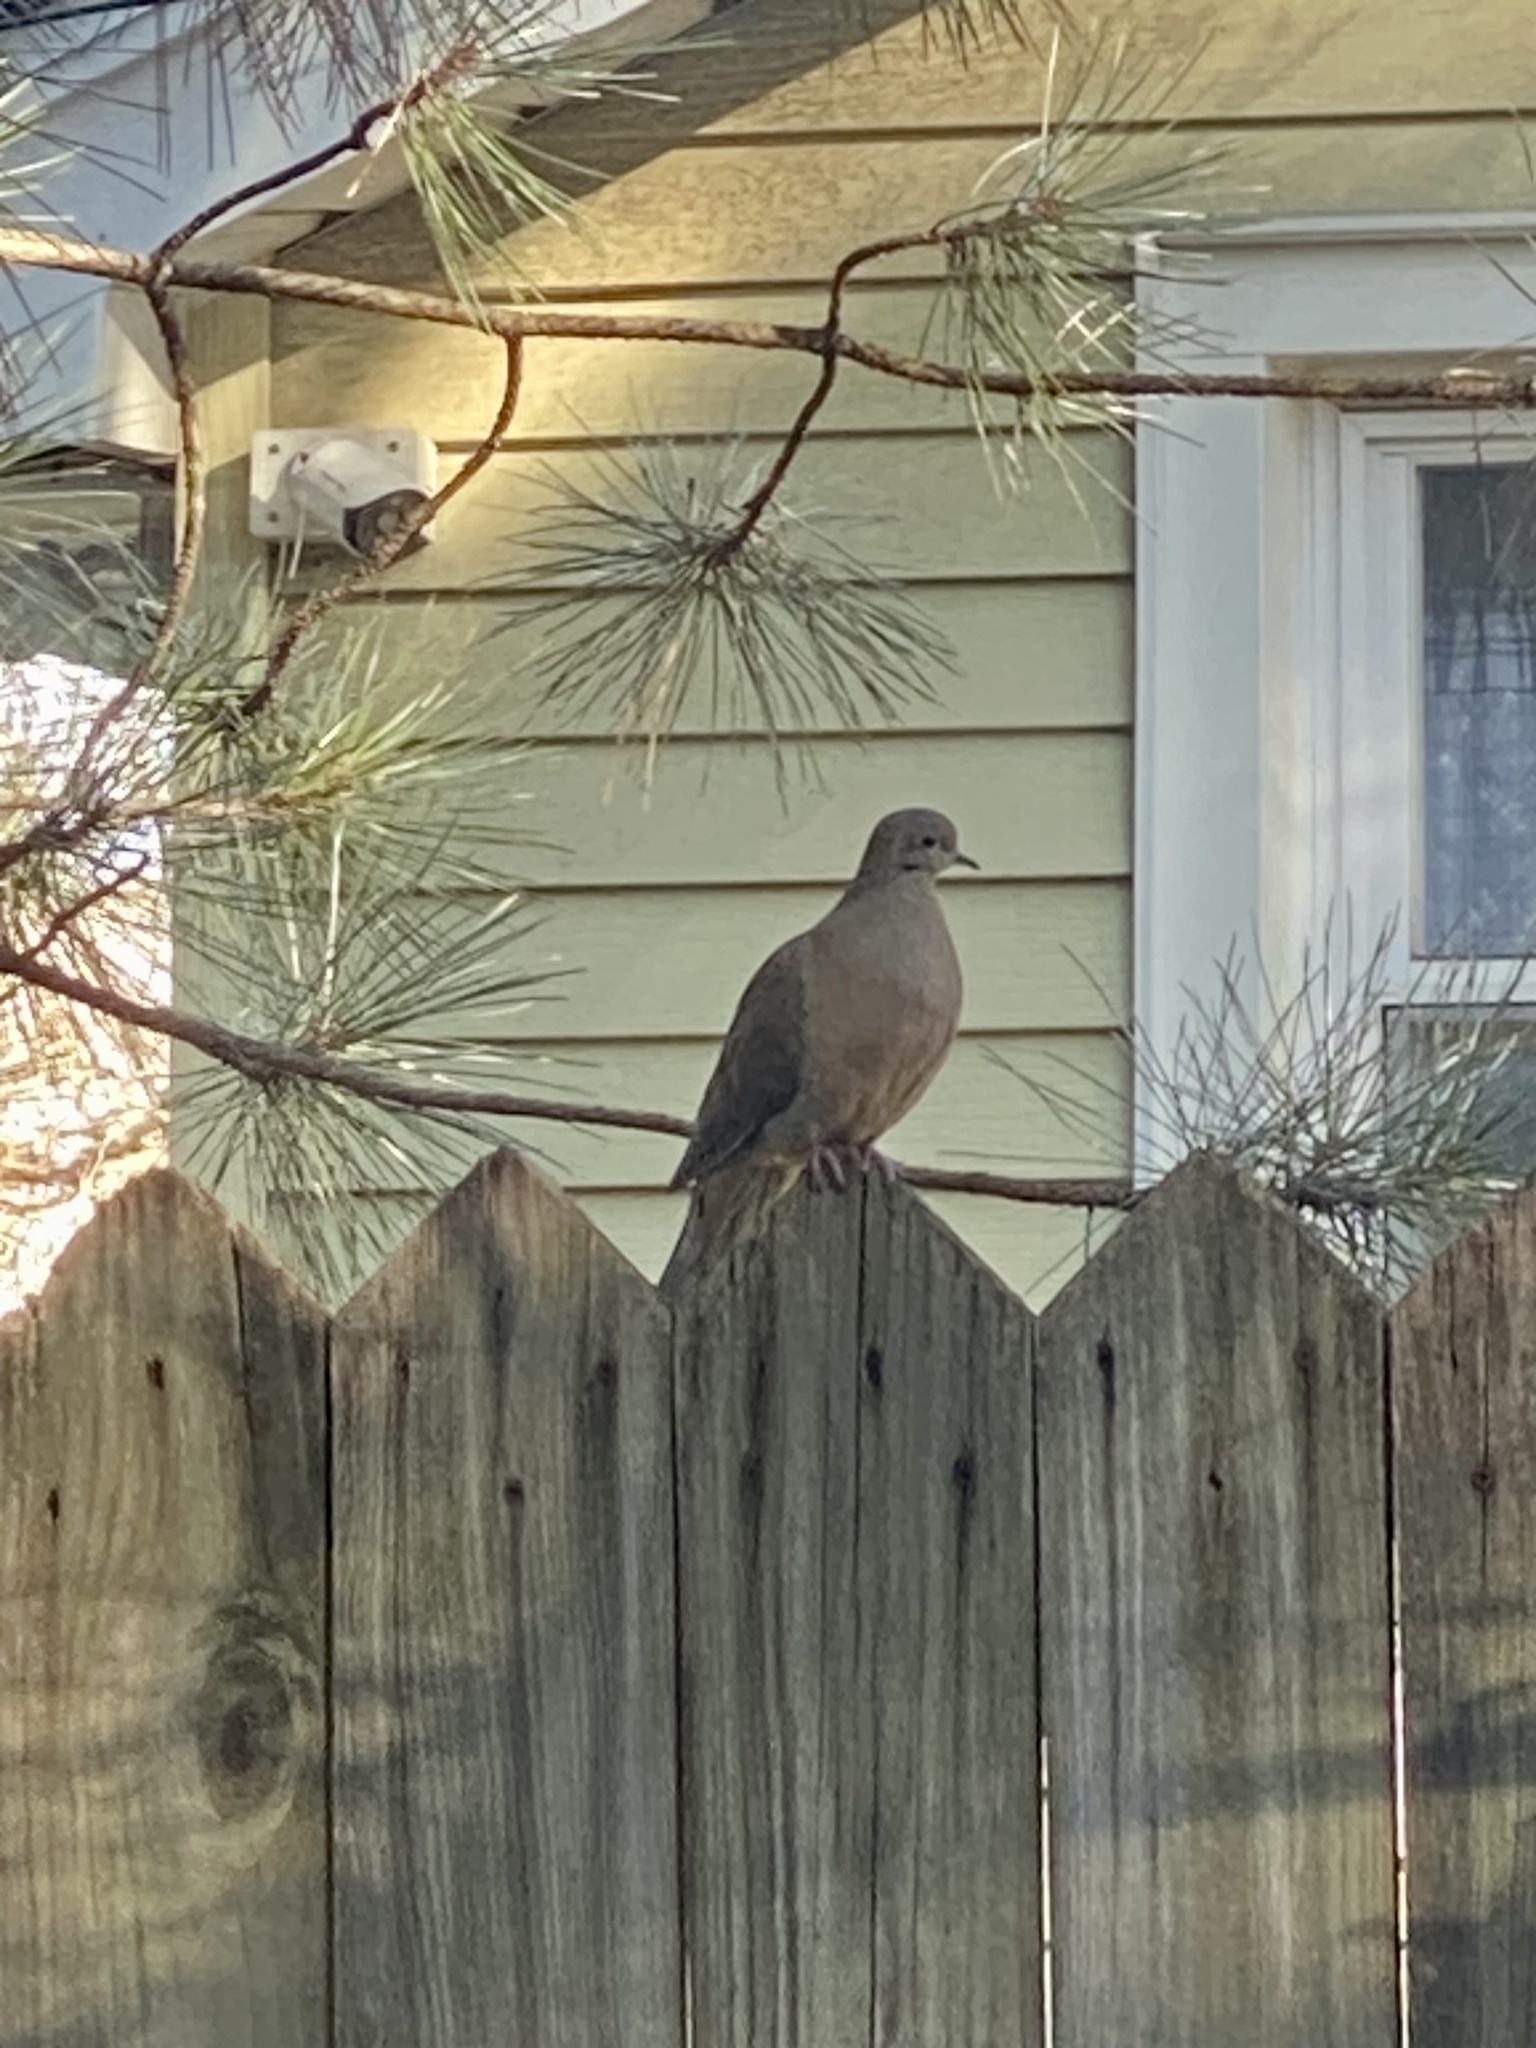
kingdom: Animalia
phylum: Chordata
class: Aves
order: Columbiformes
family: Columbidae
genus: Zenaida
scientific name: Zenaida macroura
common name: Mourning dove
